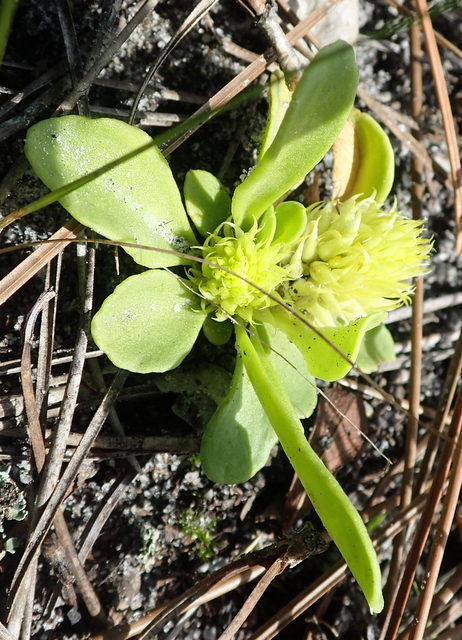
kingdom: Plantae
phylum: Tracheophyta
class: Magnoliopsida
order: Fabales
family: Polygalaceae
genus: Polygala
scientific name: Polygala nana
